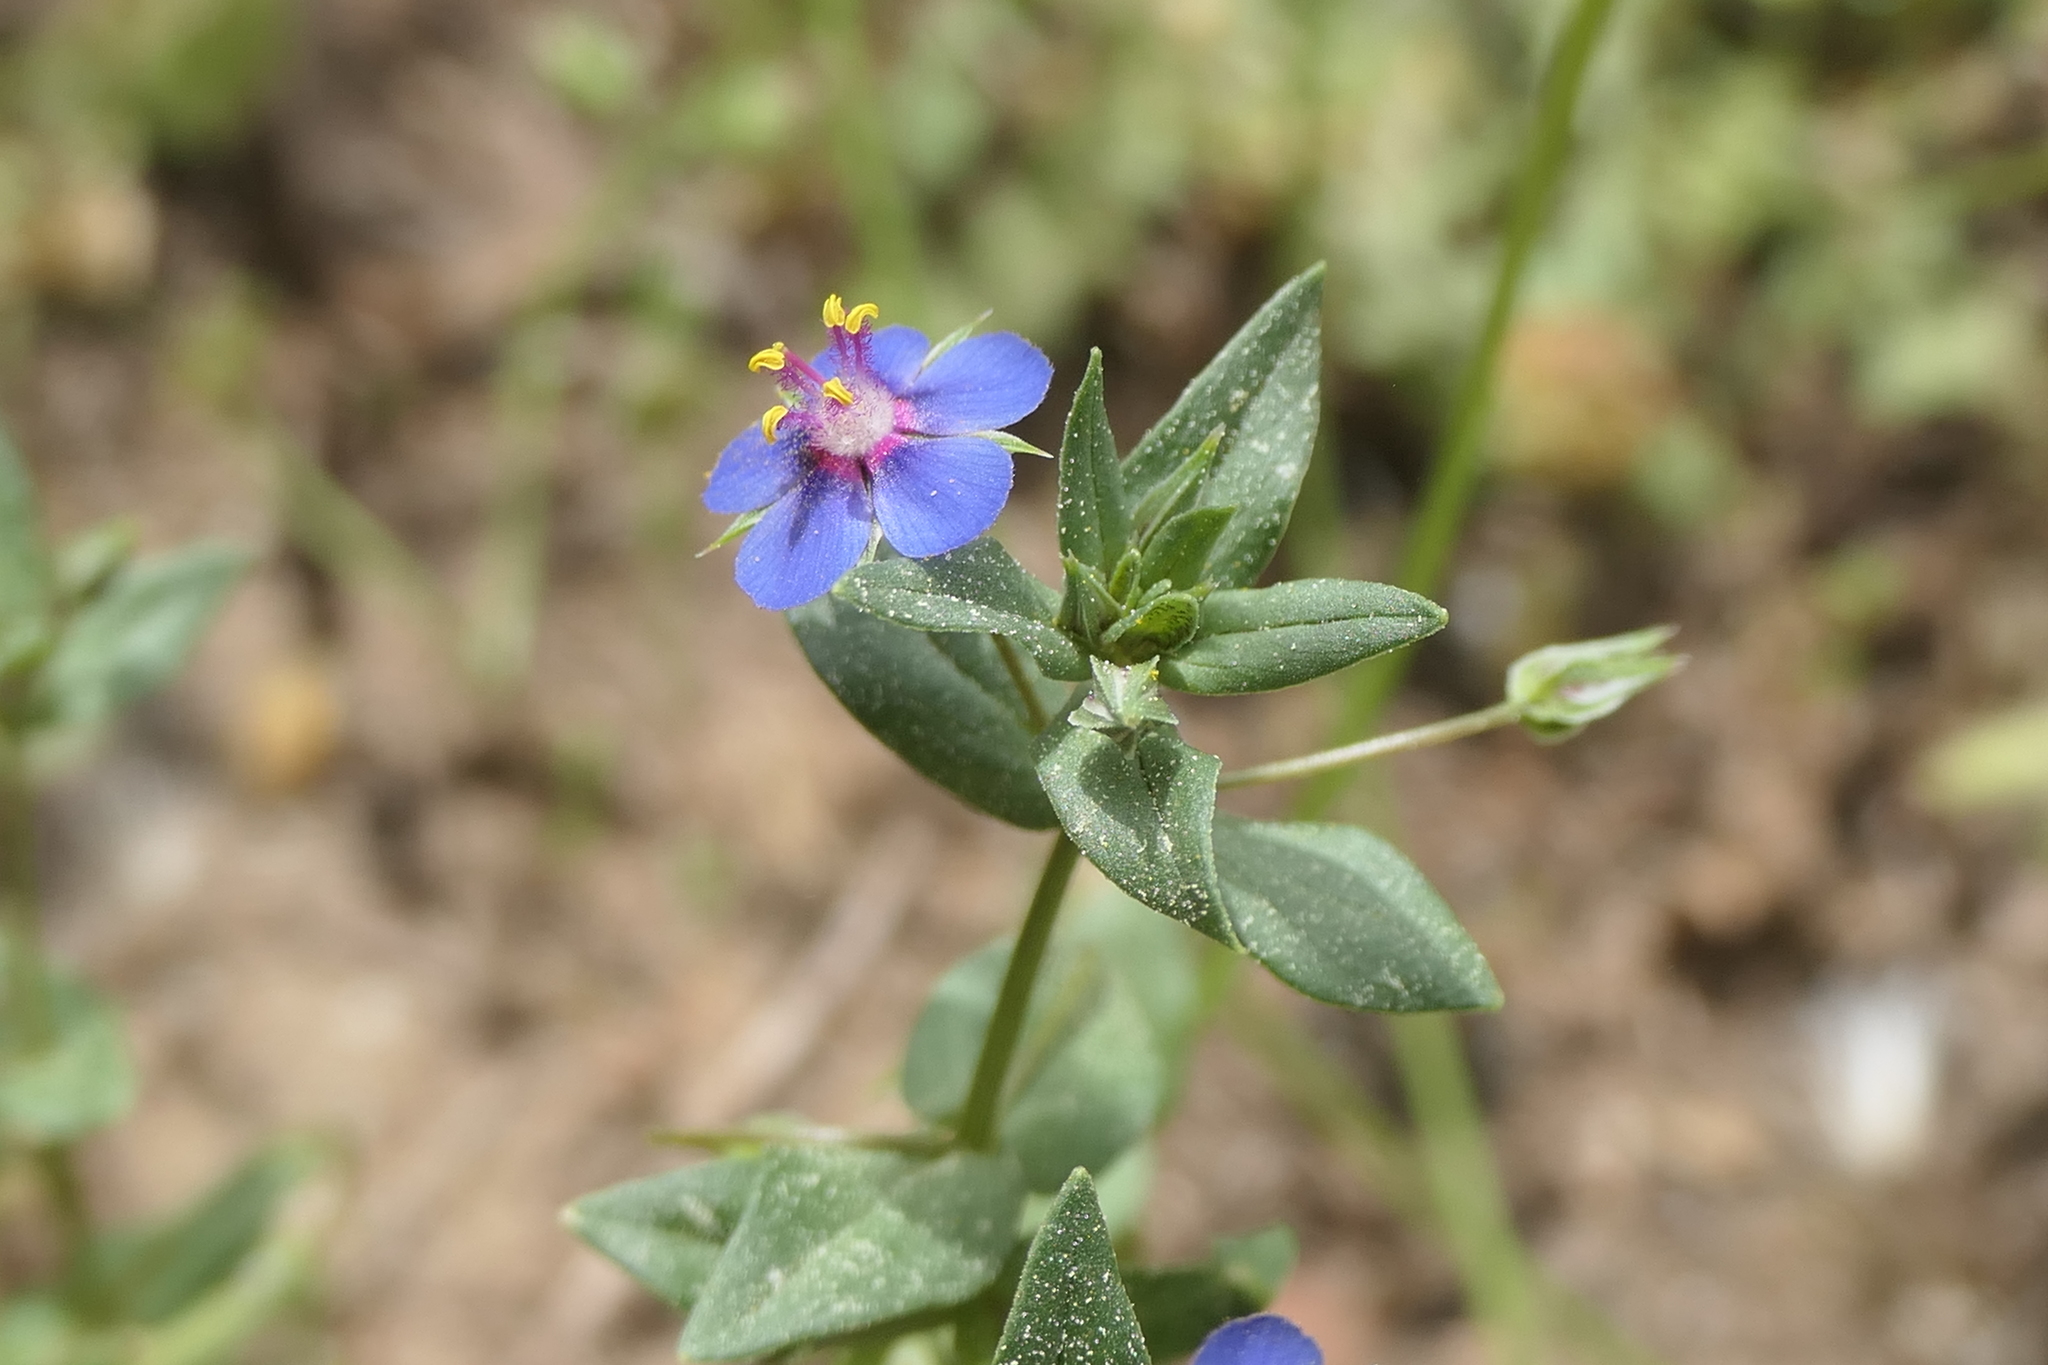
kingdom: Plantae
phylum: Tracheophyta
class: Magnoliopsida
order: Ericales
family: Primulaceae
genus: Lysimachia
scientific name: Lysimachia foemina
